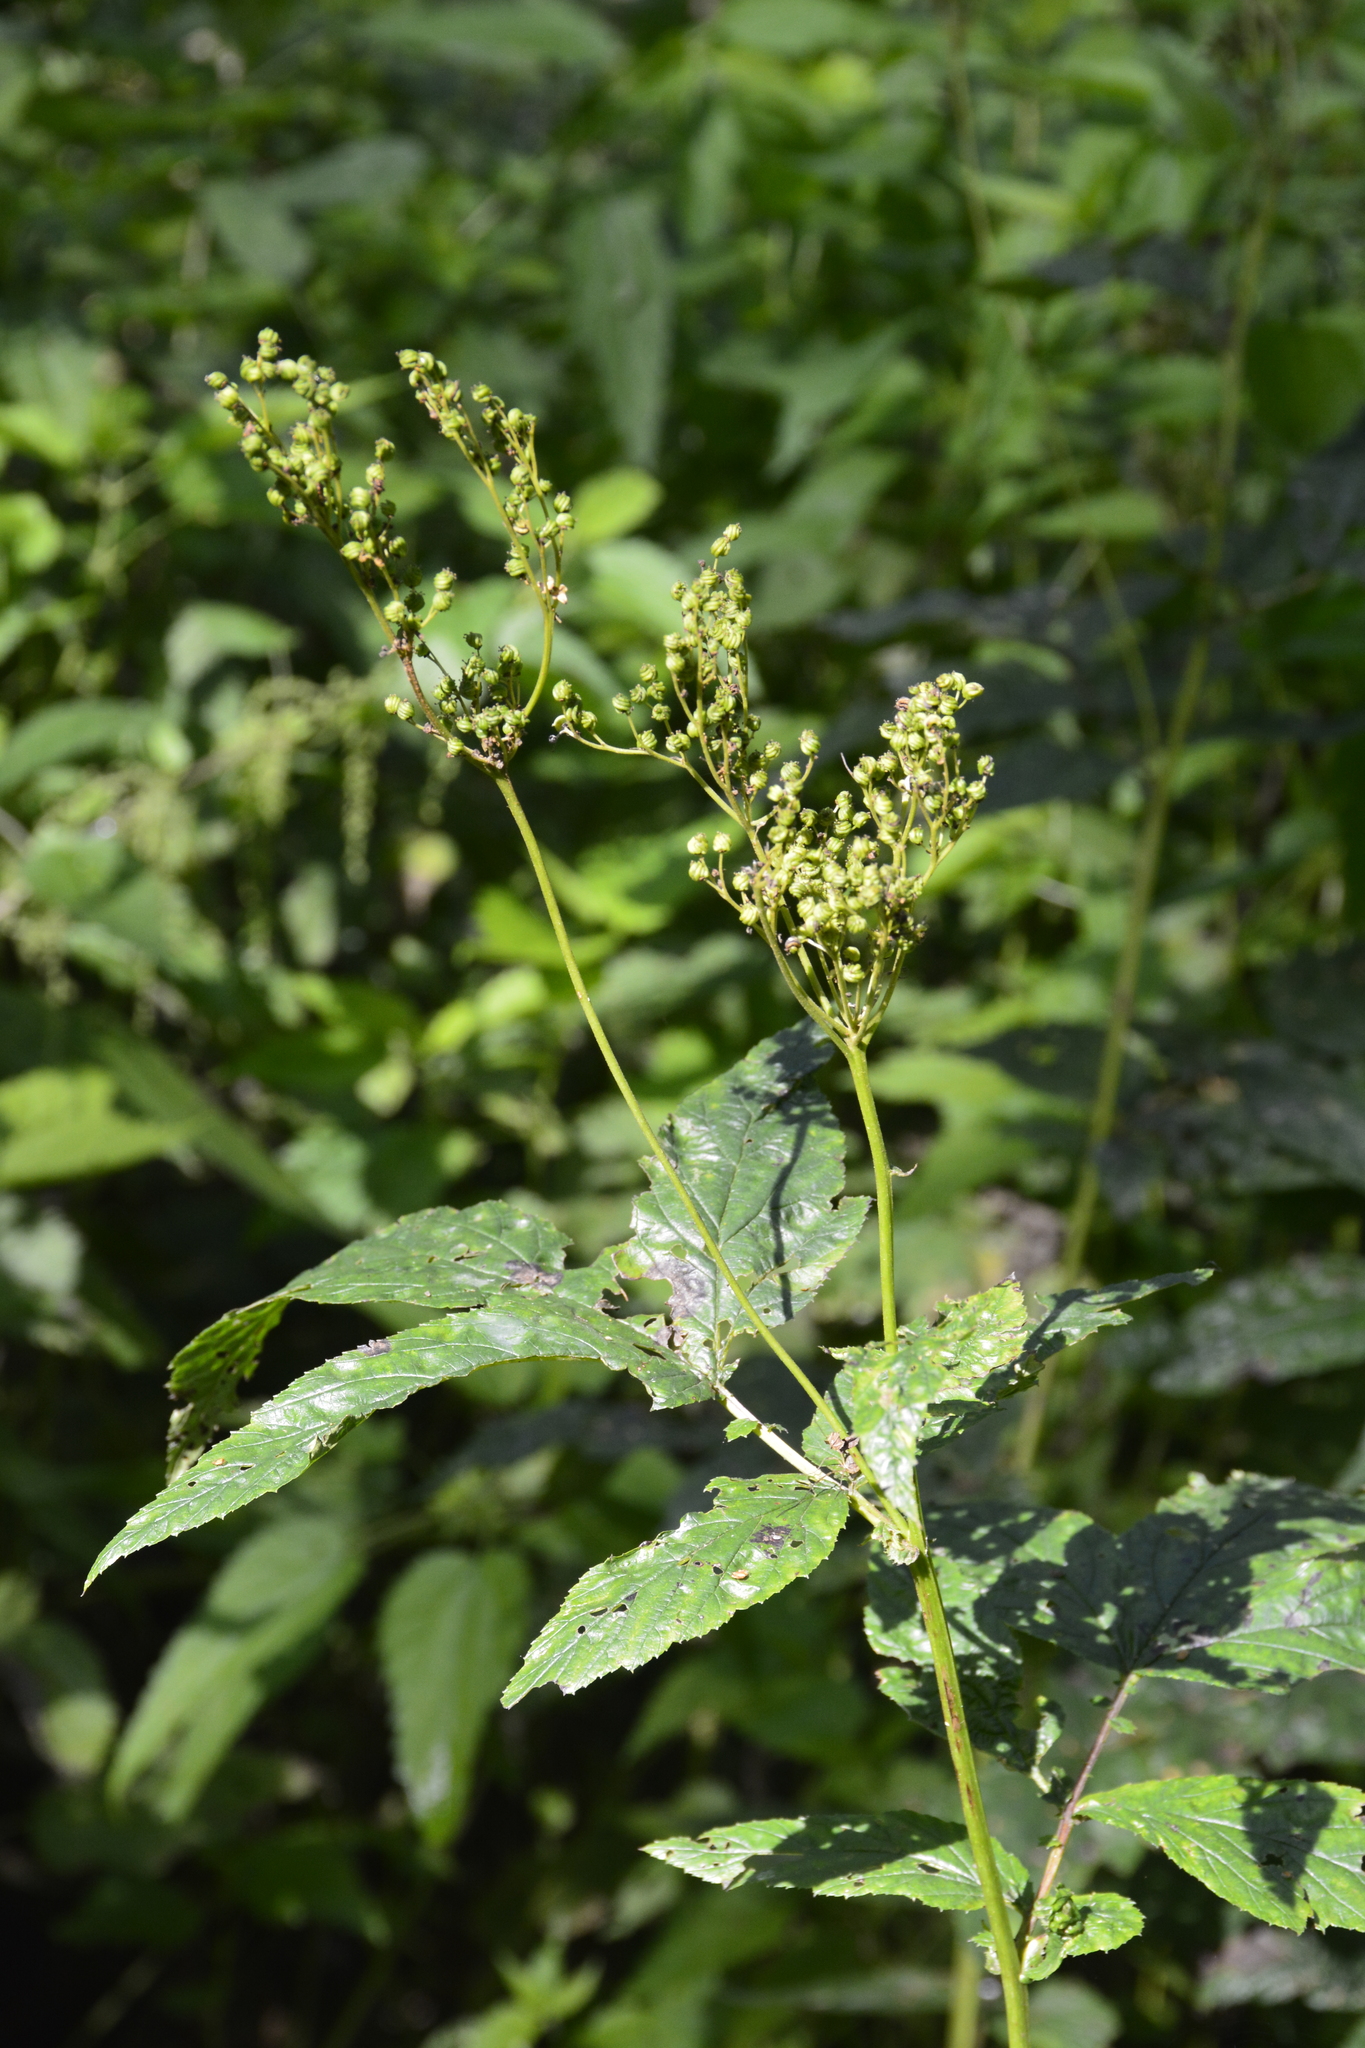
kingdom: Plantae
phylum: Tracheophyta
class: Magnoliopsida
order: Rosales
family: Rosaceae
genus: Filipendula
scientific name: Filipendula ulmaria
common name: Meadowsweet
